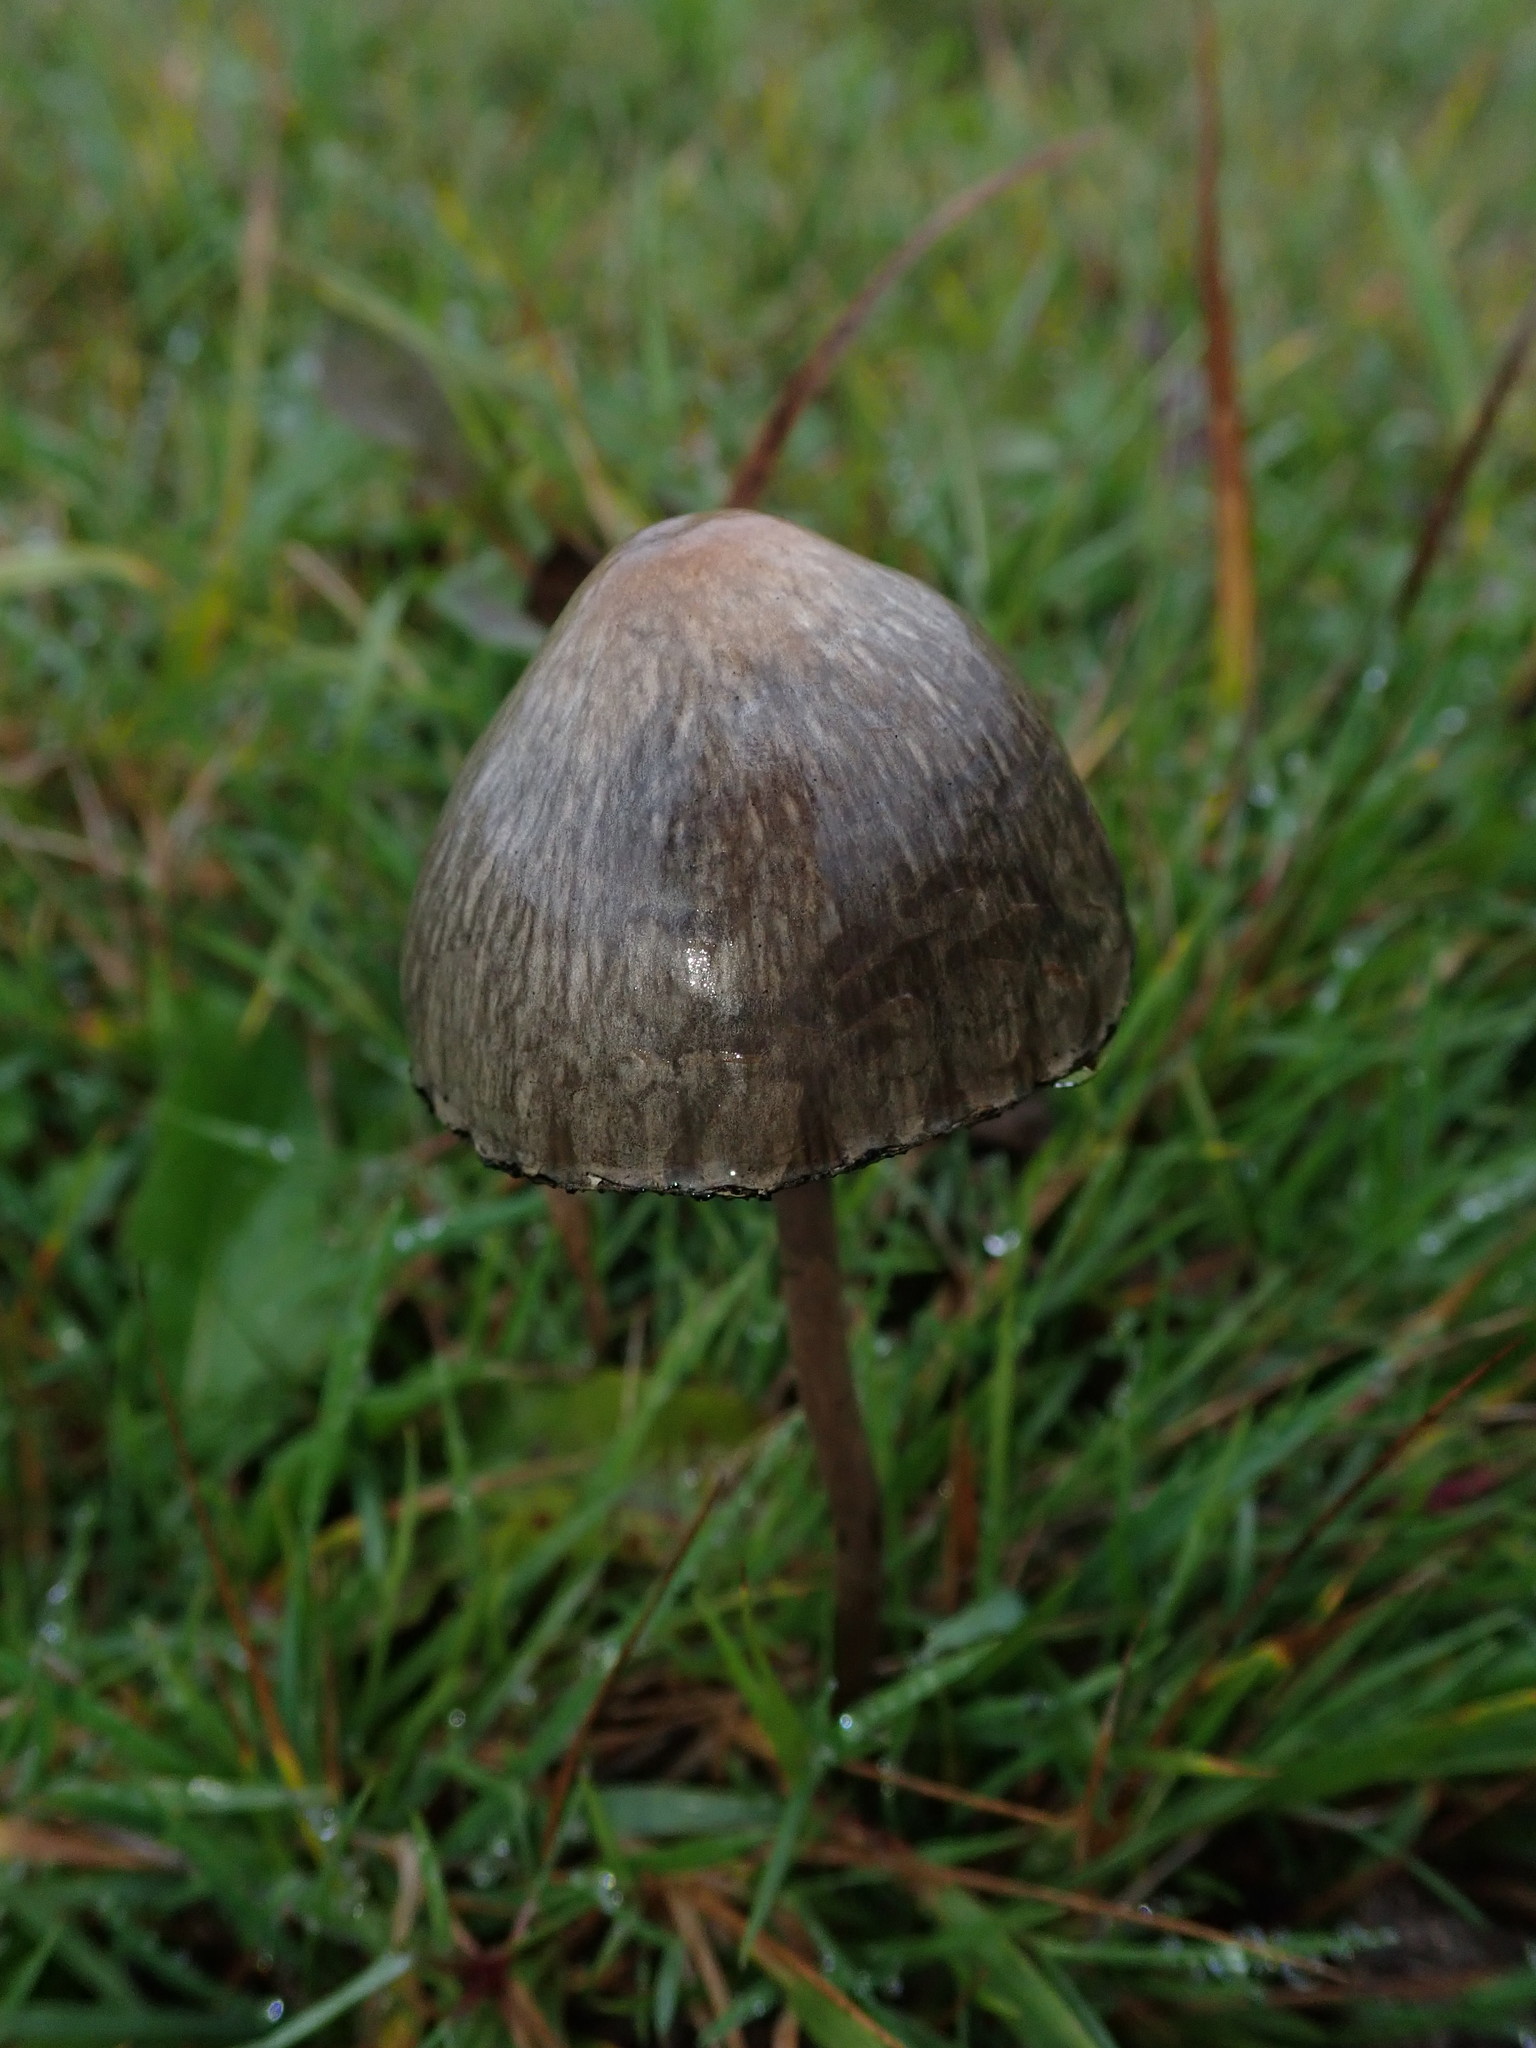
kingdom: Fungi
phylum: Basidiomycota
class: Agaricomycetes
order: Agaricales
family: Bolbitiaceae
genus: Panaeolus
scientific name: Panaeolus papilionaceus
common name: Petticoat mottlegill
